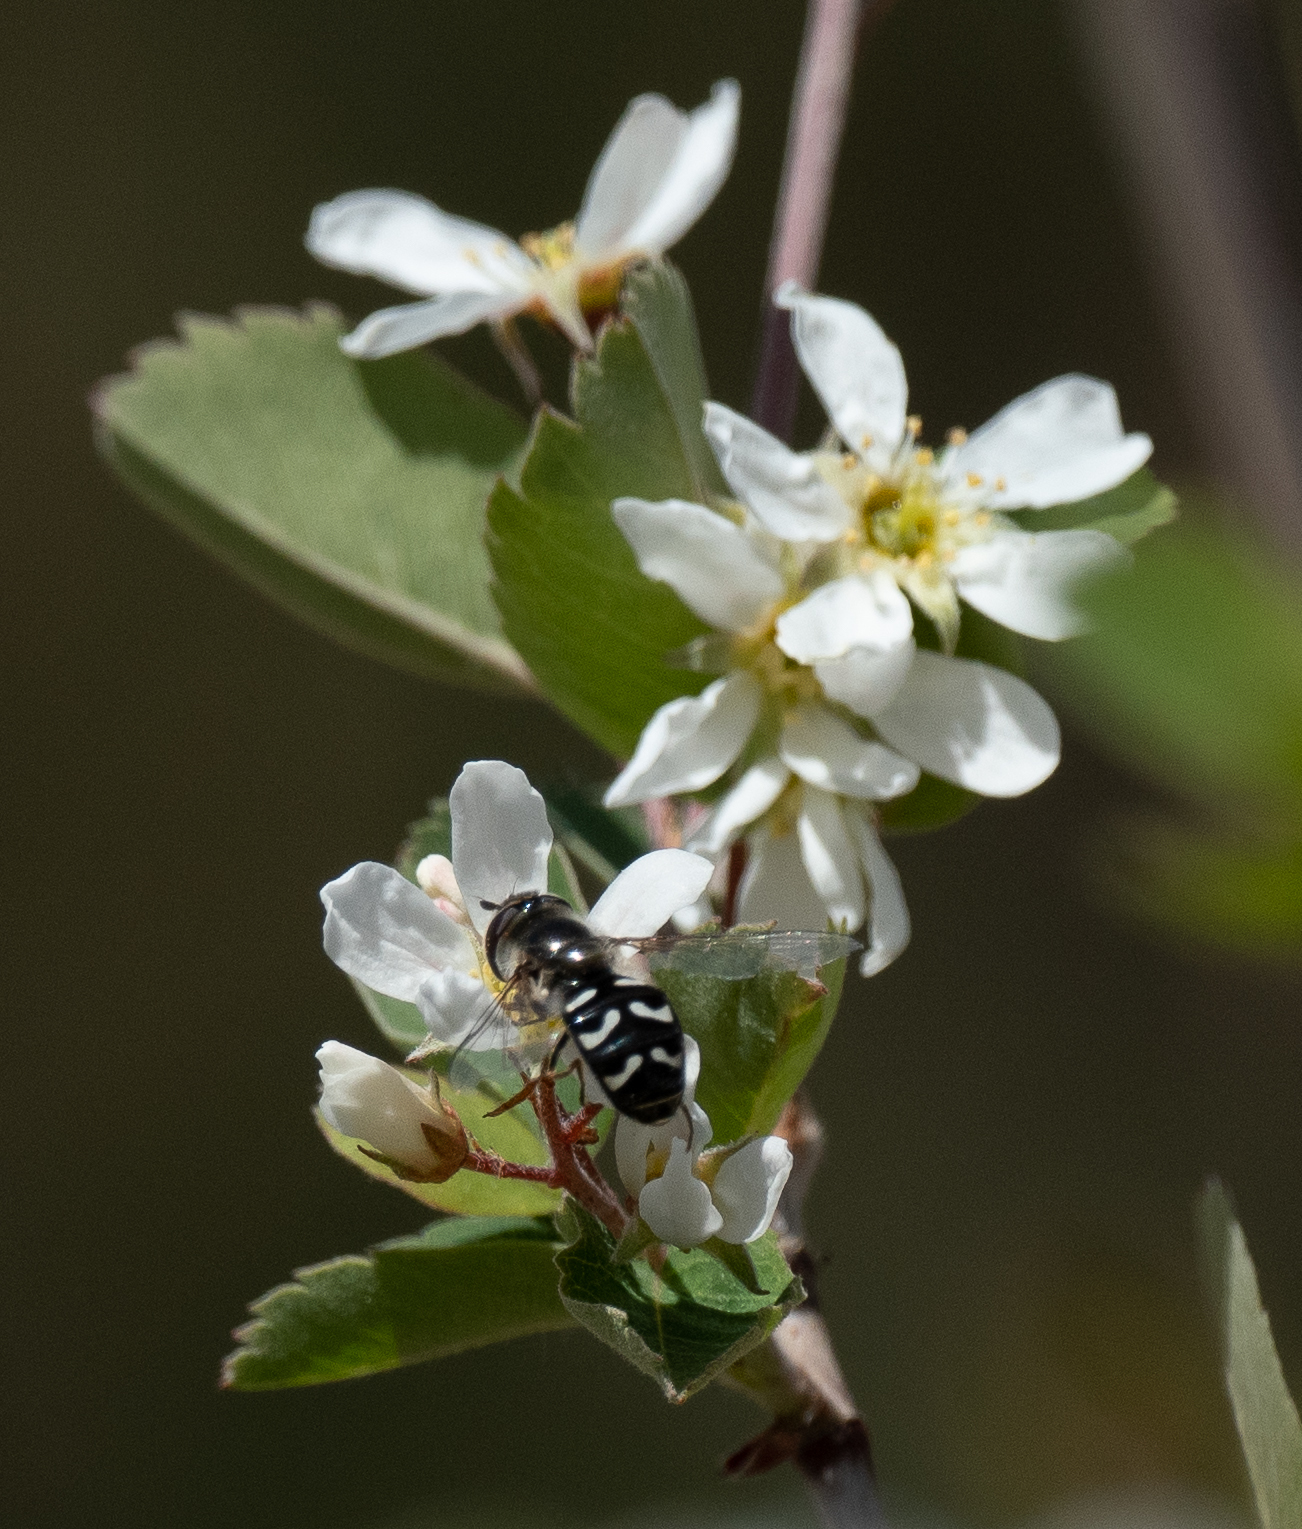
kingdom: Animalia
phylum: Arthropoda
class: Insecta
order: Diptera
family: Syrphidae
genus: Scaeva
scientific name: Scaeva affinis
